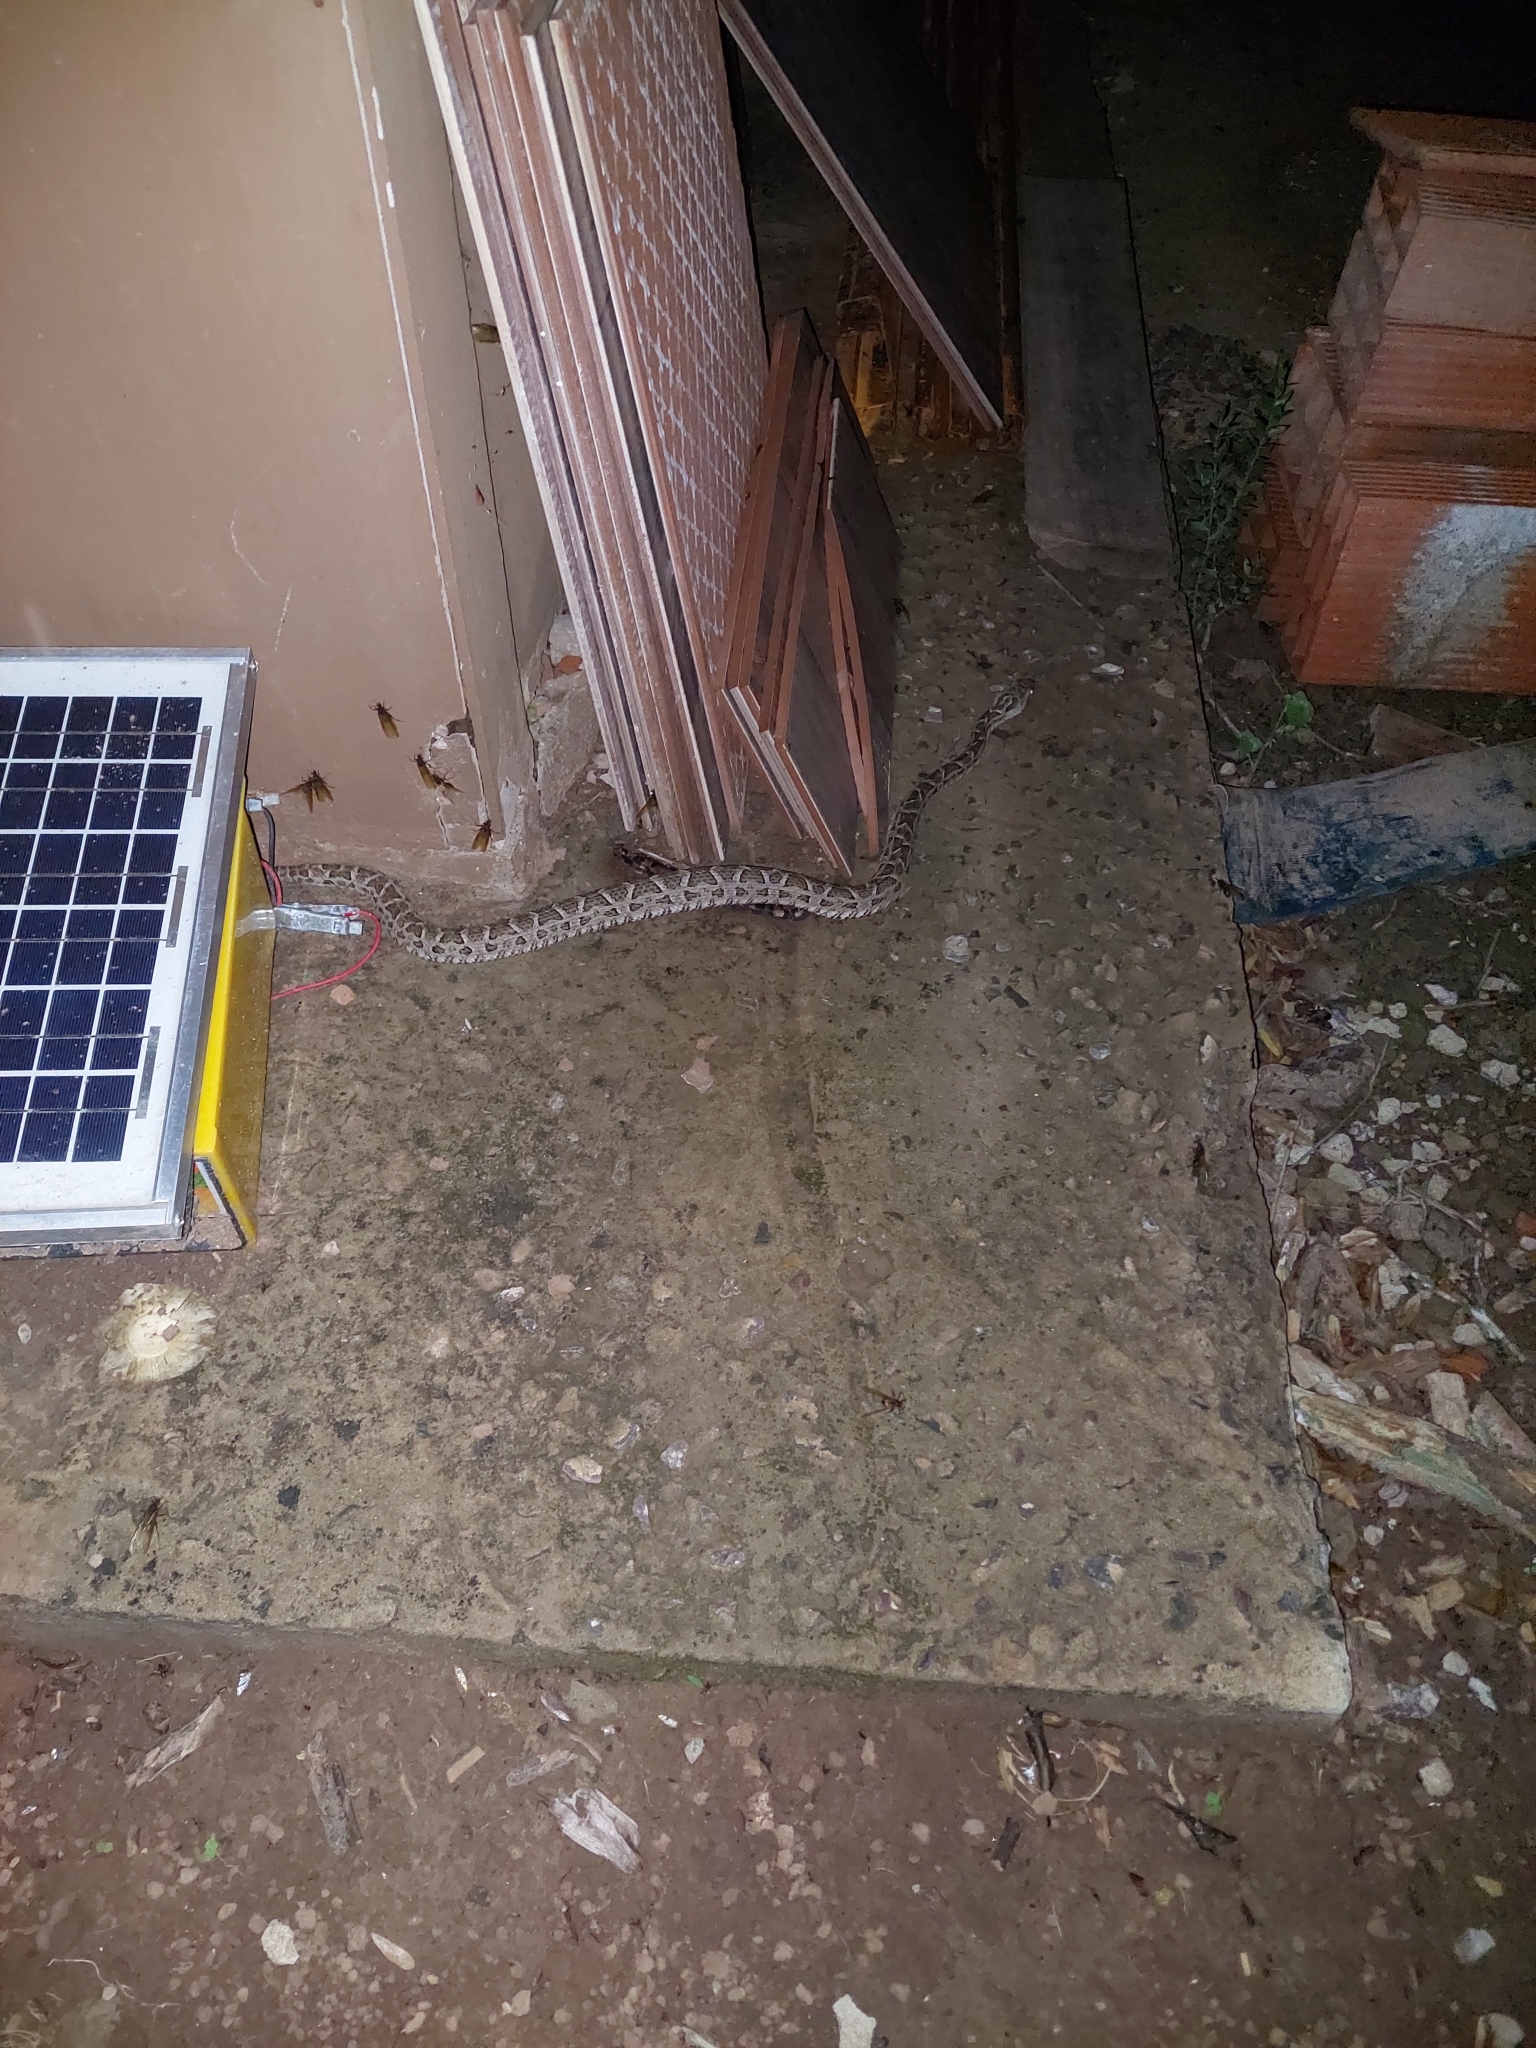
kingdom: Animalia
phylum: Chordata
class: Squamata
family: Viperidae
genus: Bothrops
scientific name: Bothrops diporus
